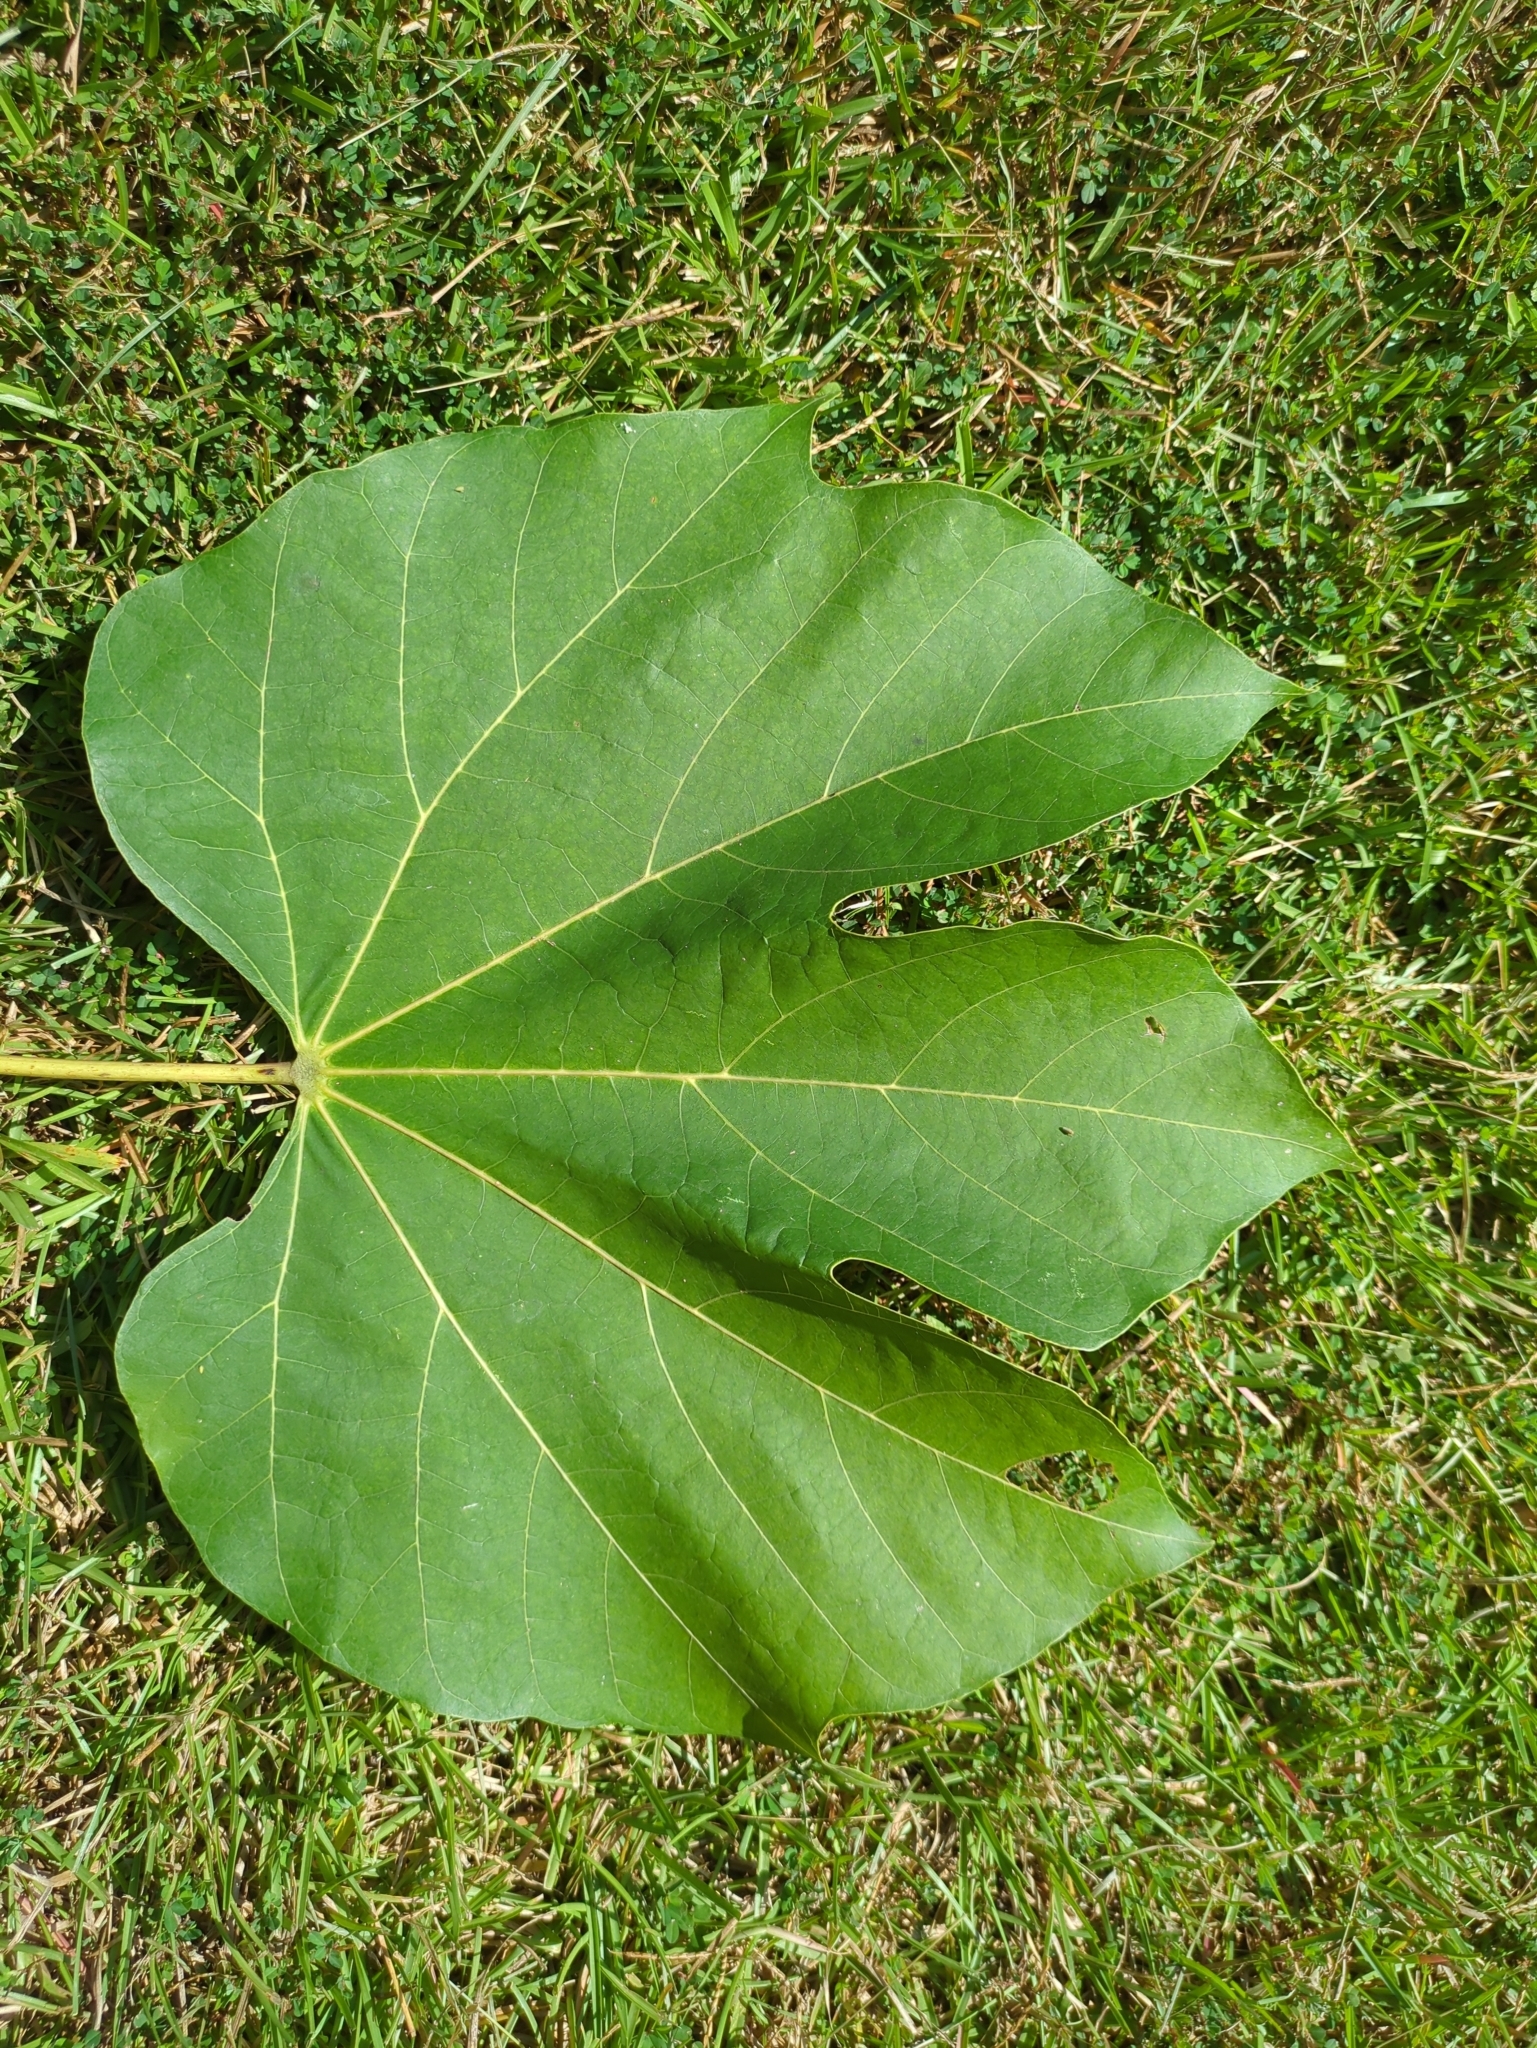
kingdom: Plantae
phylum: Tracheophyta
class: Magnoliopsida
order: Malvales
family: Malvaceae
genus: Firmiana
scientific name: Firmiana simplex
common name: Chinese parasoltree
